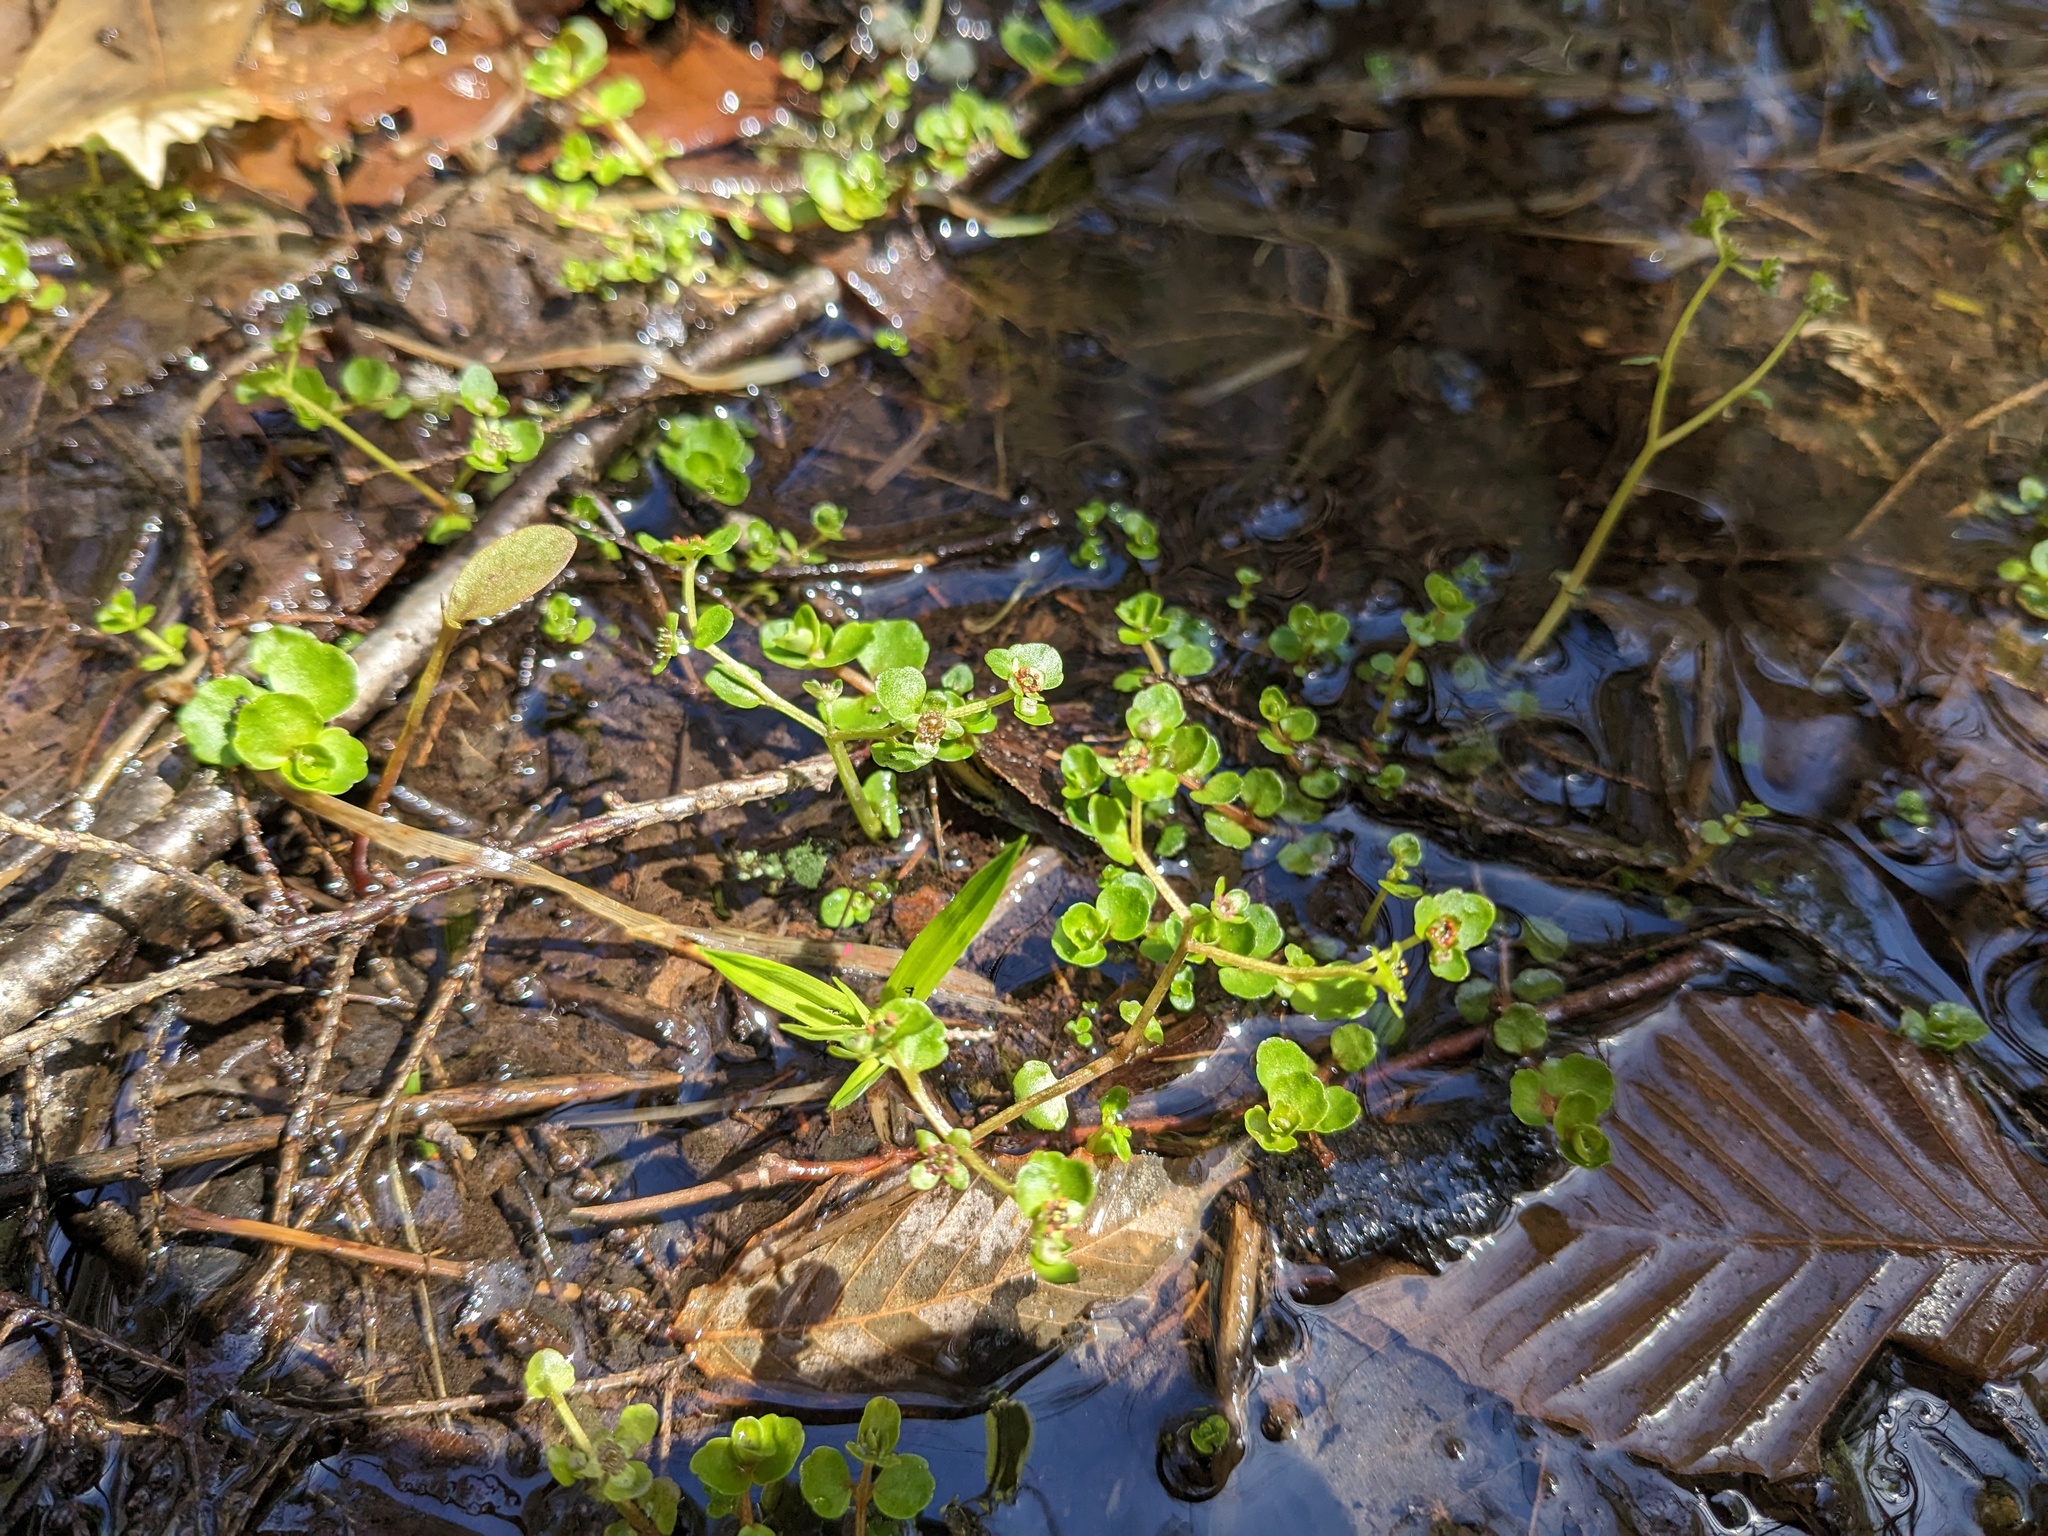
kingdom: Plantae
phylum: Tracheophyta
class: Magnoliopsida
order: Saxifragales
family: Saxifragaceae
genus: Chrysosplenium
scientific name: Chrysosplenium americanum
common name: American golden-saxifrage
